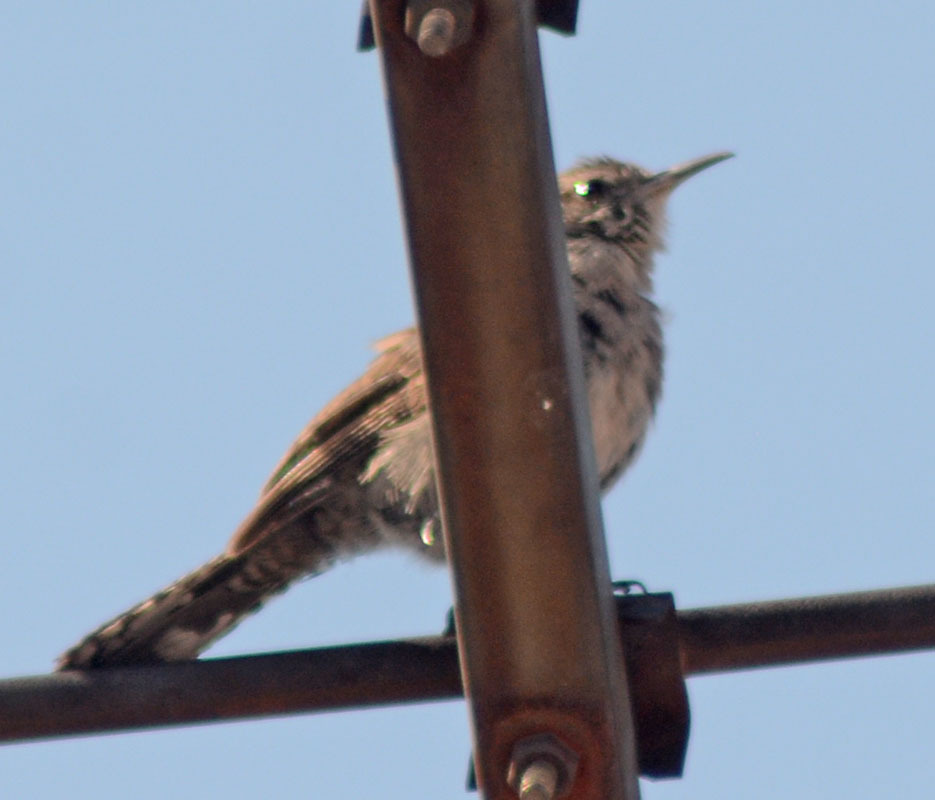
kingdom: Animalia
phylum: Chordata
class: Aves
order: Passeriformes
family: Troglodytidae
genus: Thryomanes
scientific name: Thryomanes bewickii
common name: Bewick's wren
